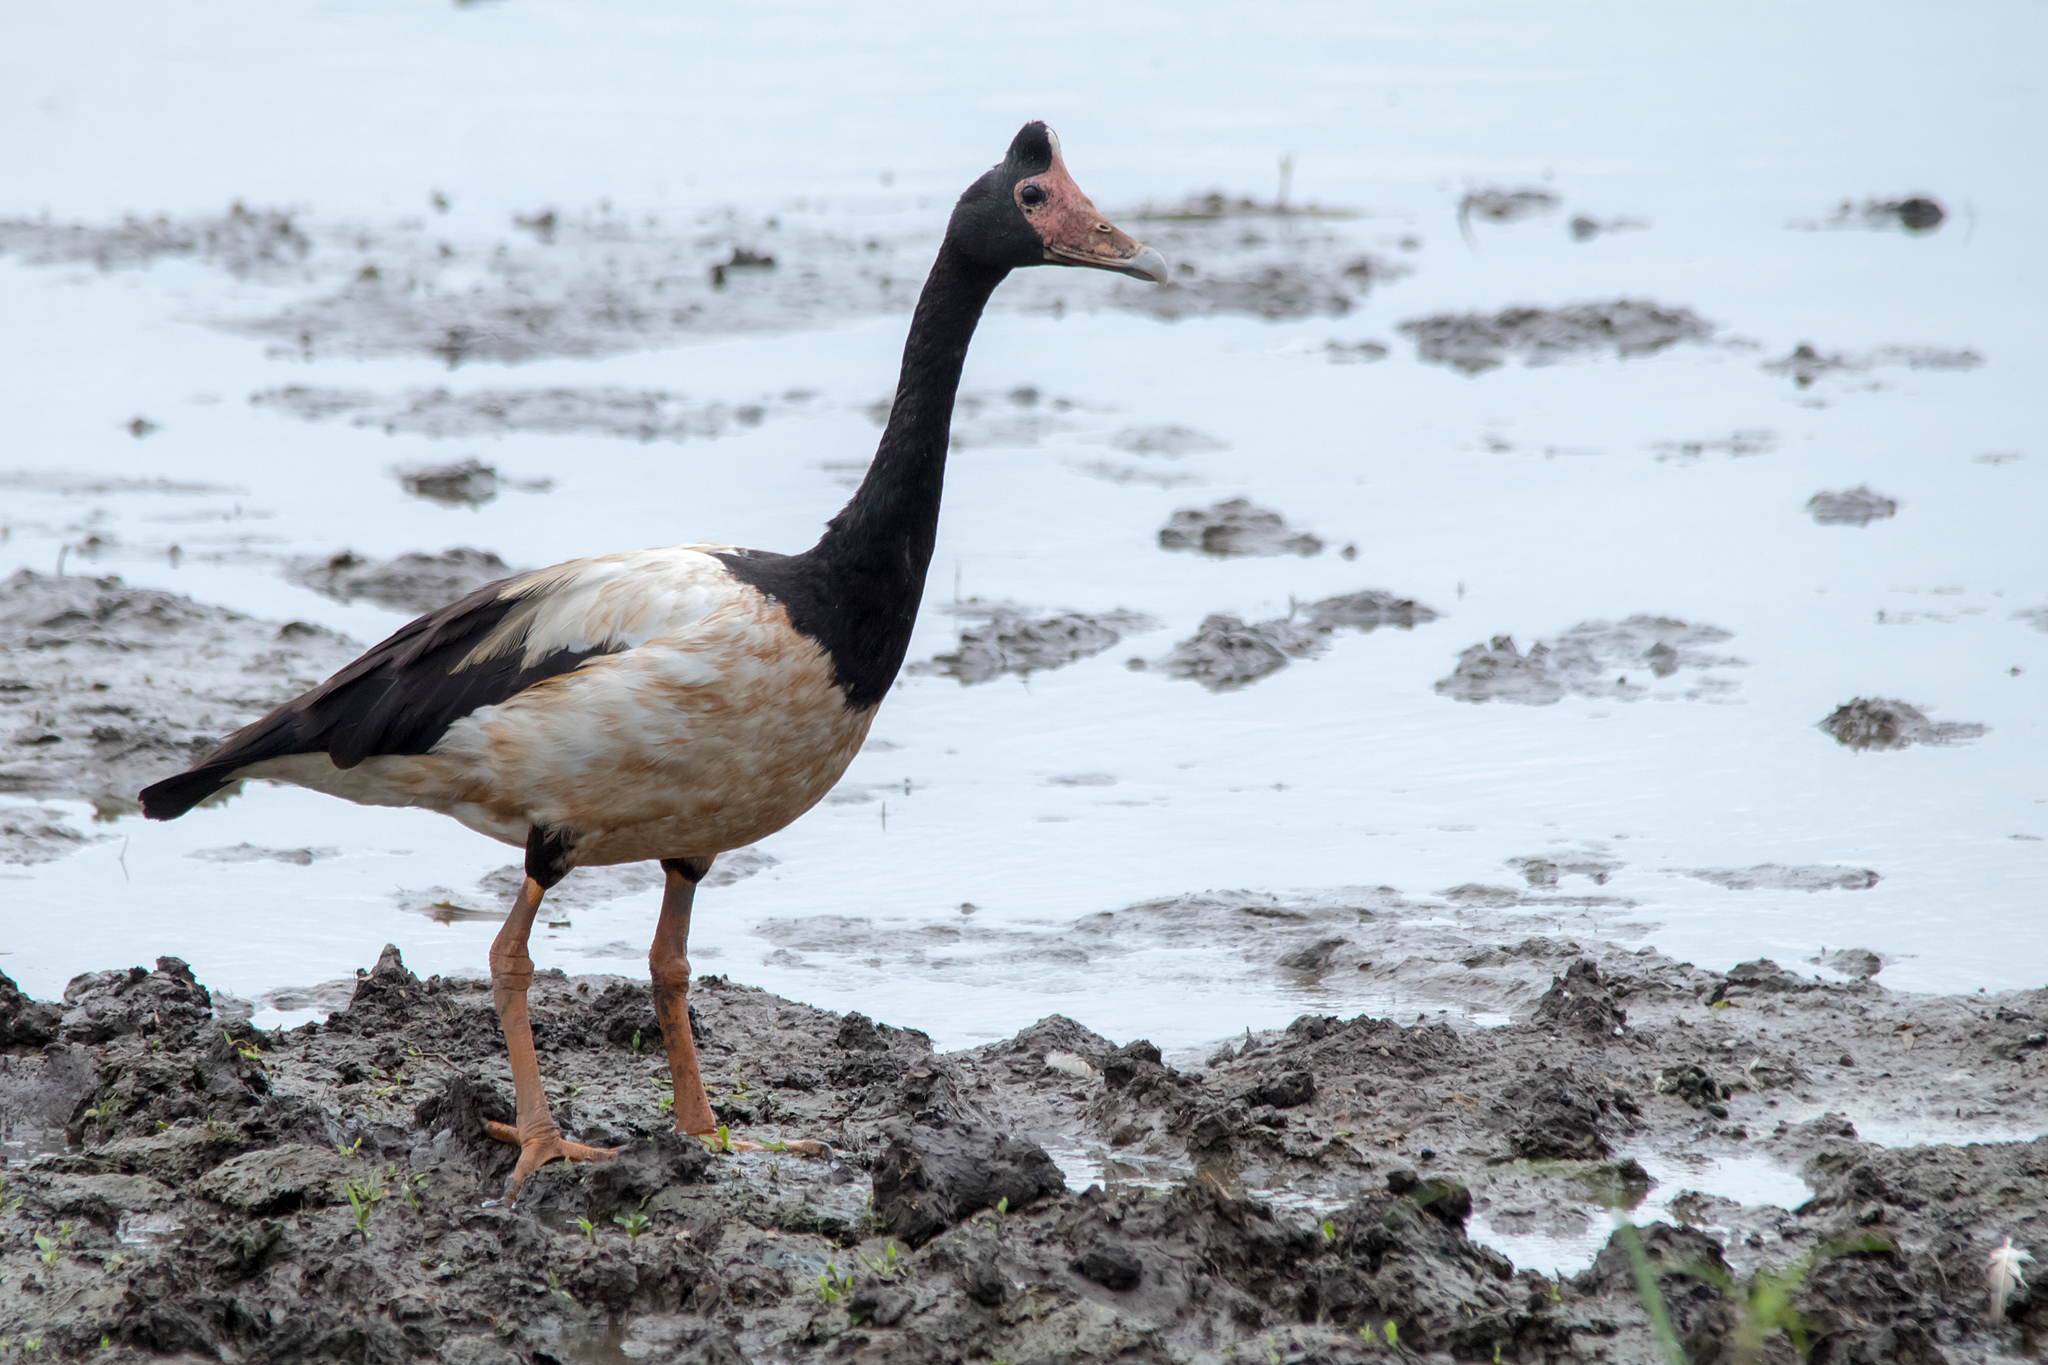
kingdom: Animalia
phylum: Chordata
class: Aves
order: Anseriformes
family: Anseranatidae
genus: Anseranas
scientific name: Anseranas semipalmata
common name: Magpie goose
